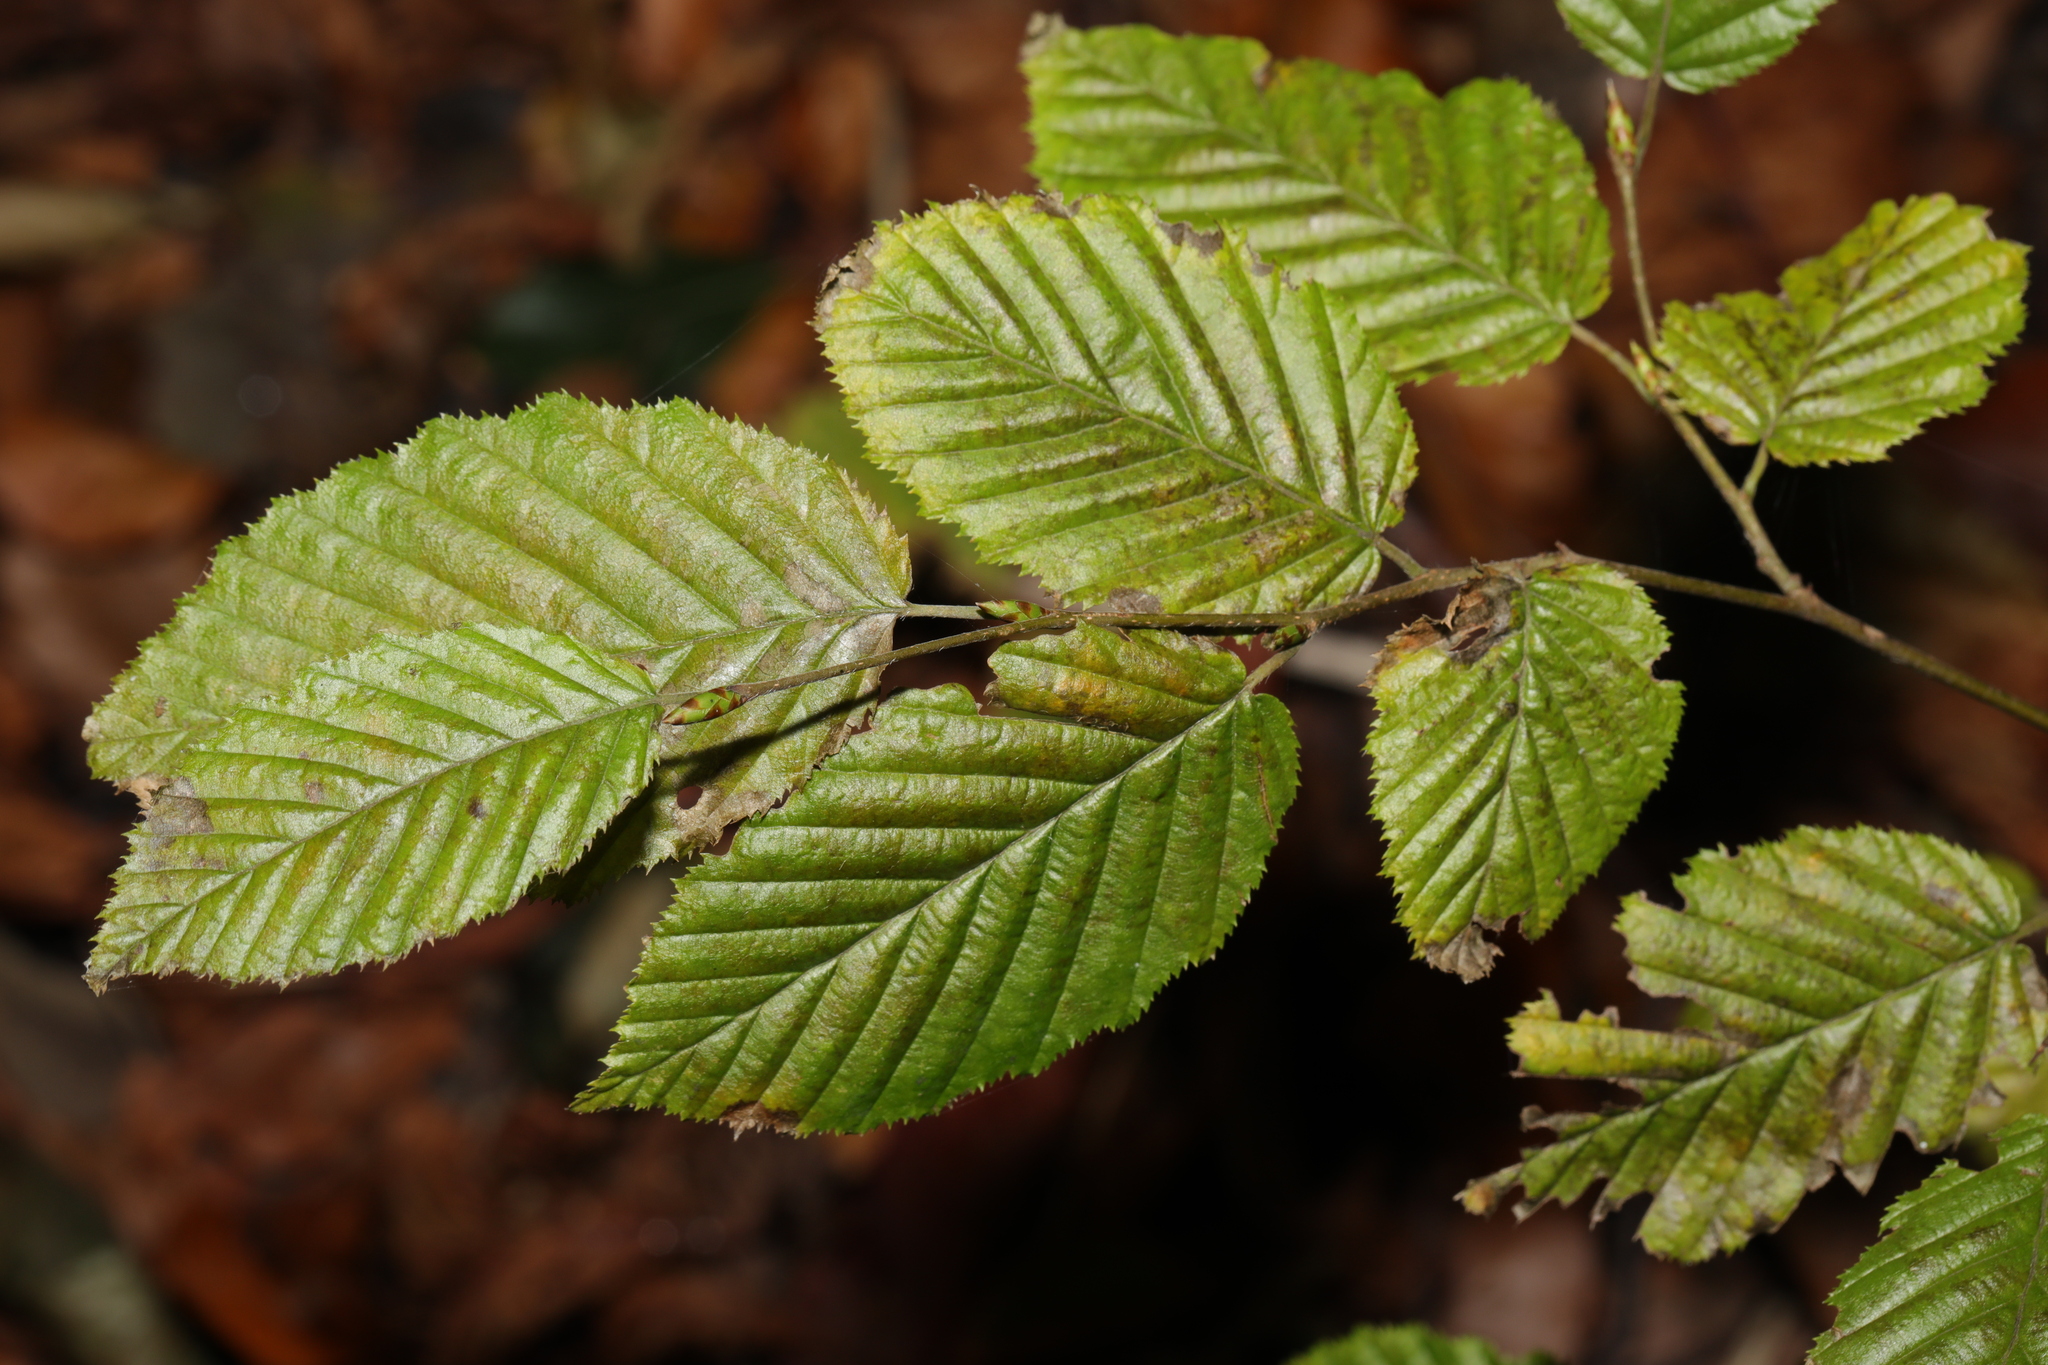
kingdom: Plantae
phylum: Tracheophyta
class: Magnoliopsida
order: Fagales
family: Betulaceae
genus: Carpinus
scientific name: Carpinus betulus
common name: Hornbeam
